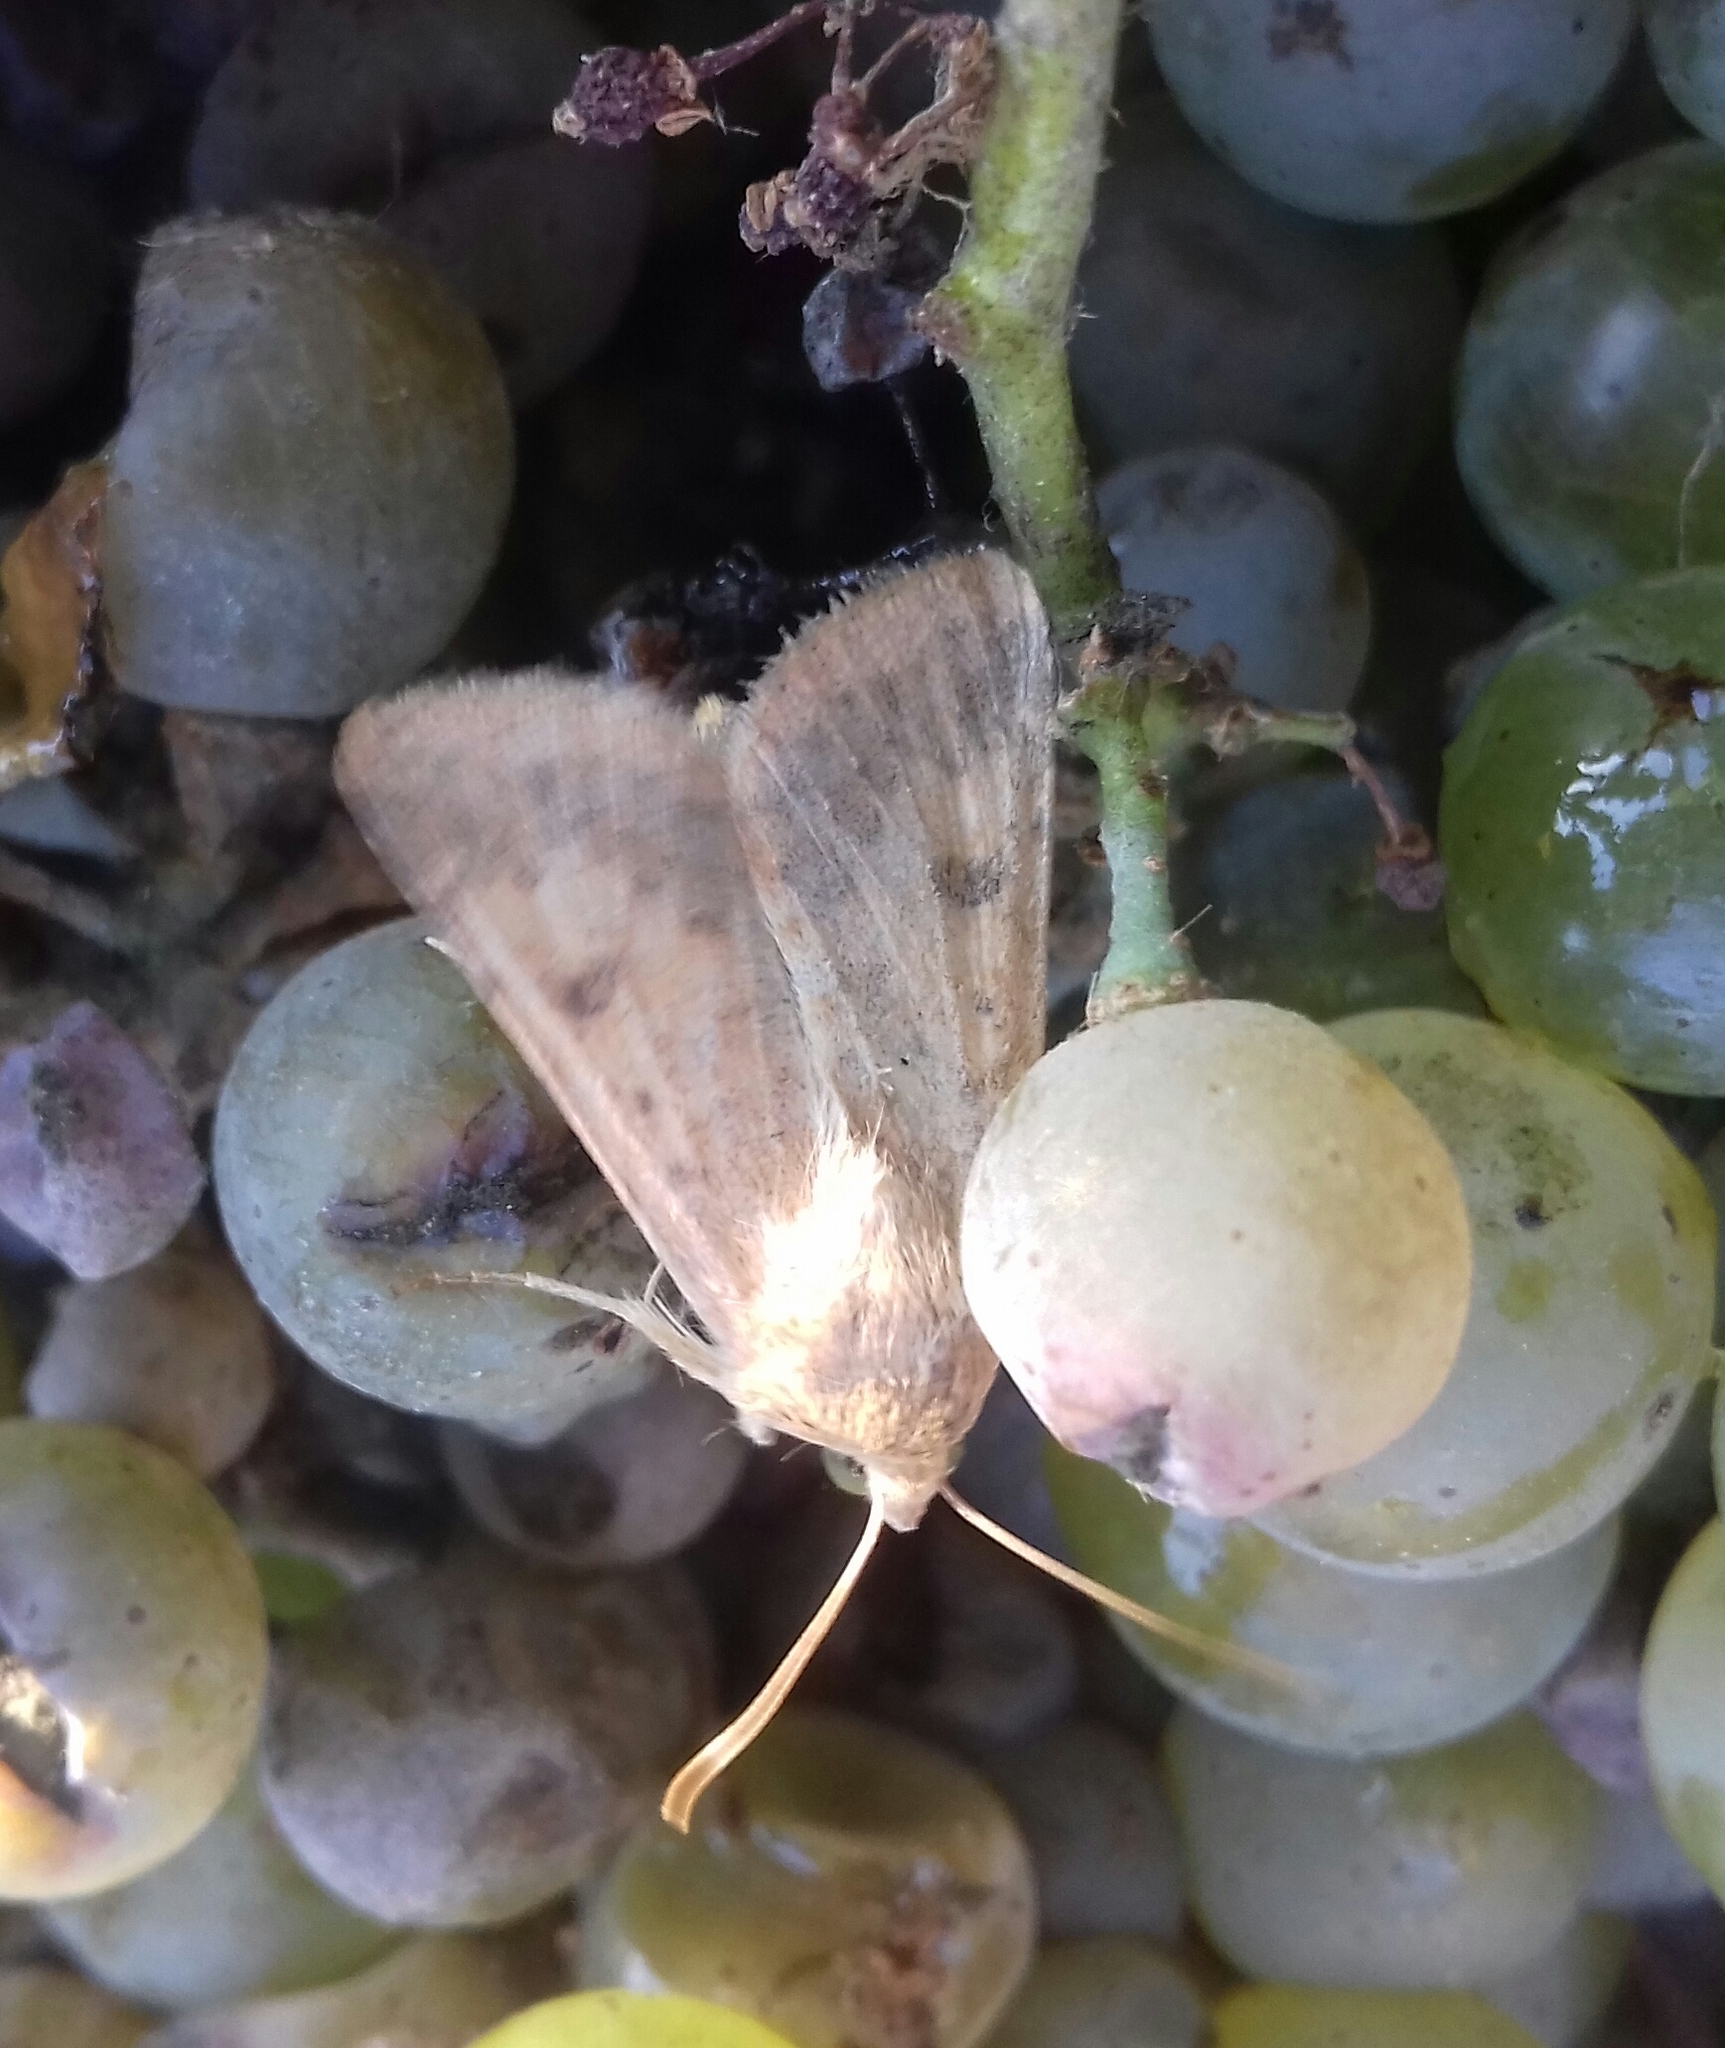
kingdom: Animalia
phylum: Arthropoda
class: Insecta
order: Lepidoptera
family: Noctuidae
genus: Helicoverpa
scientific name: Helicoverpa armigera
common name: Cotton bollworm
